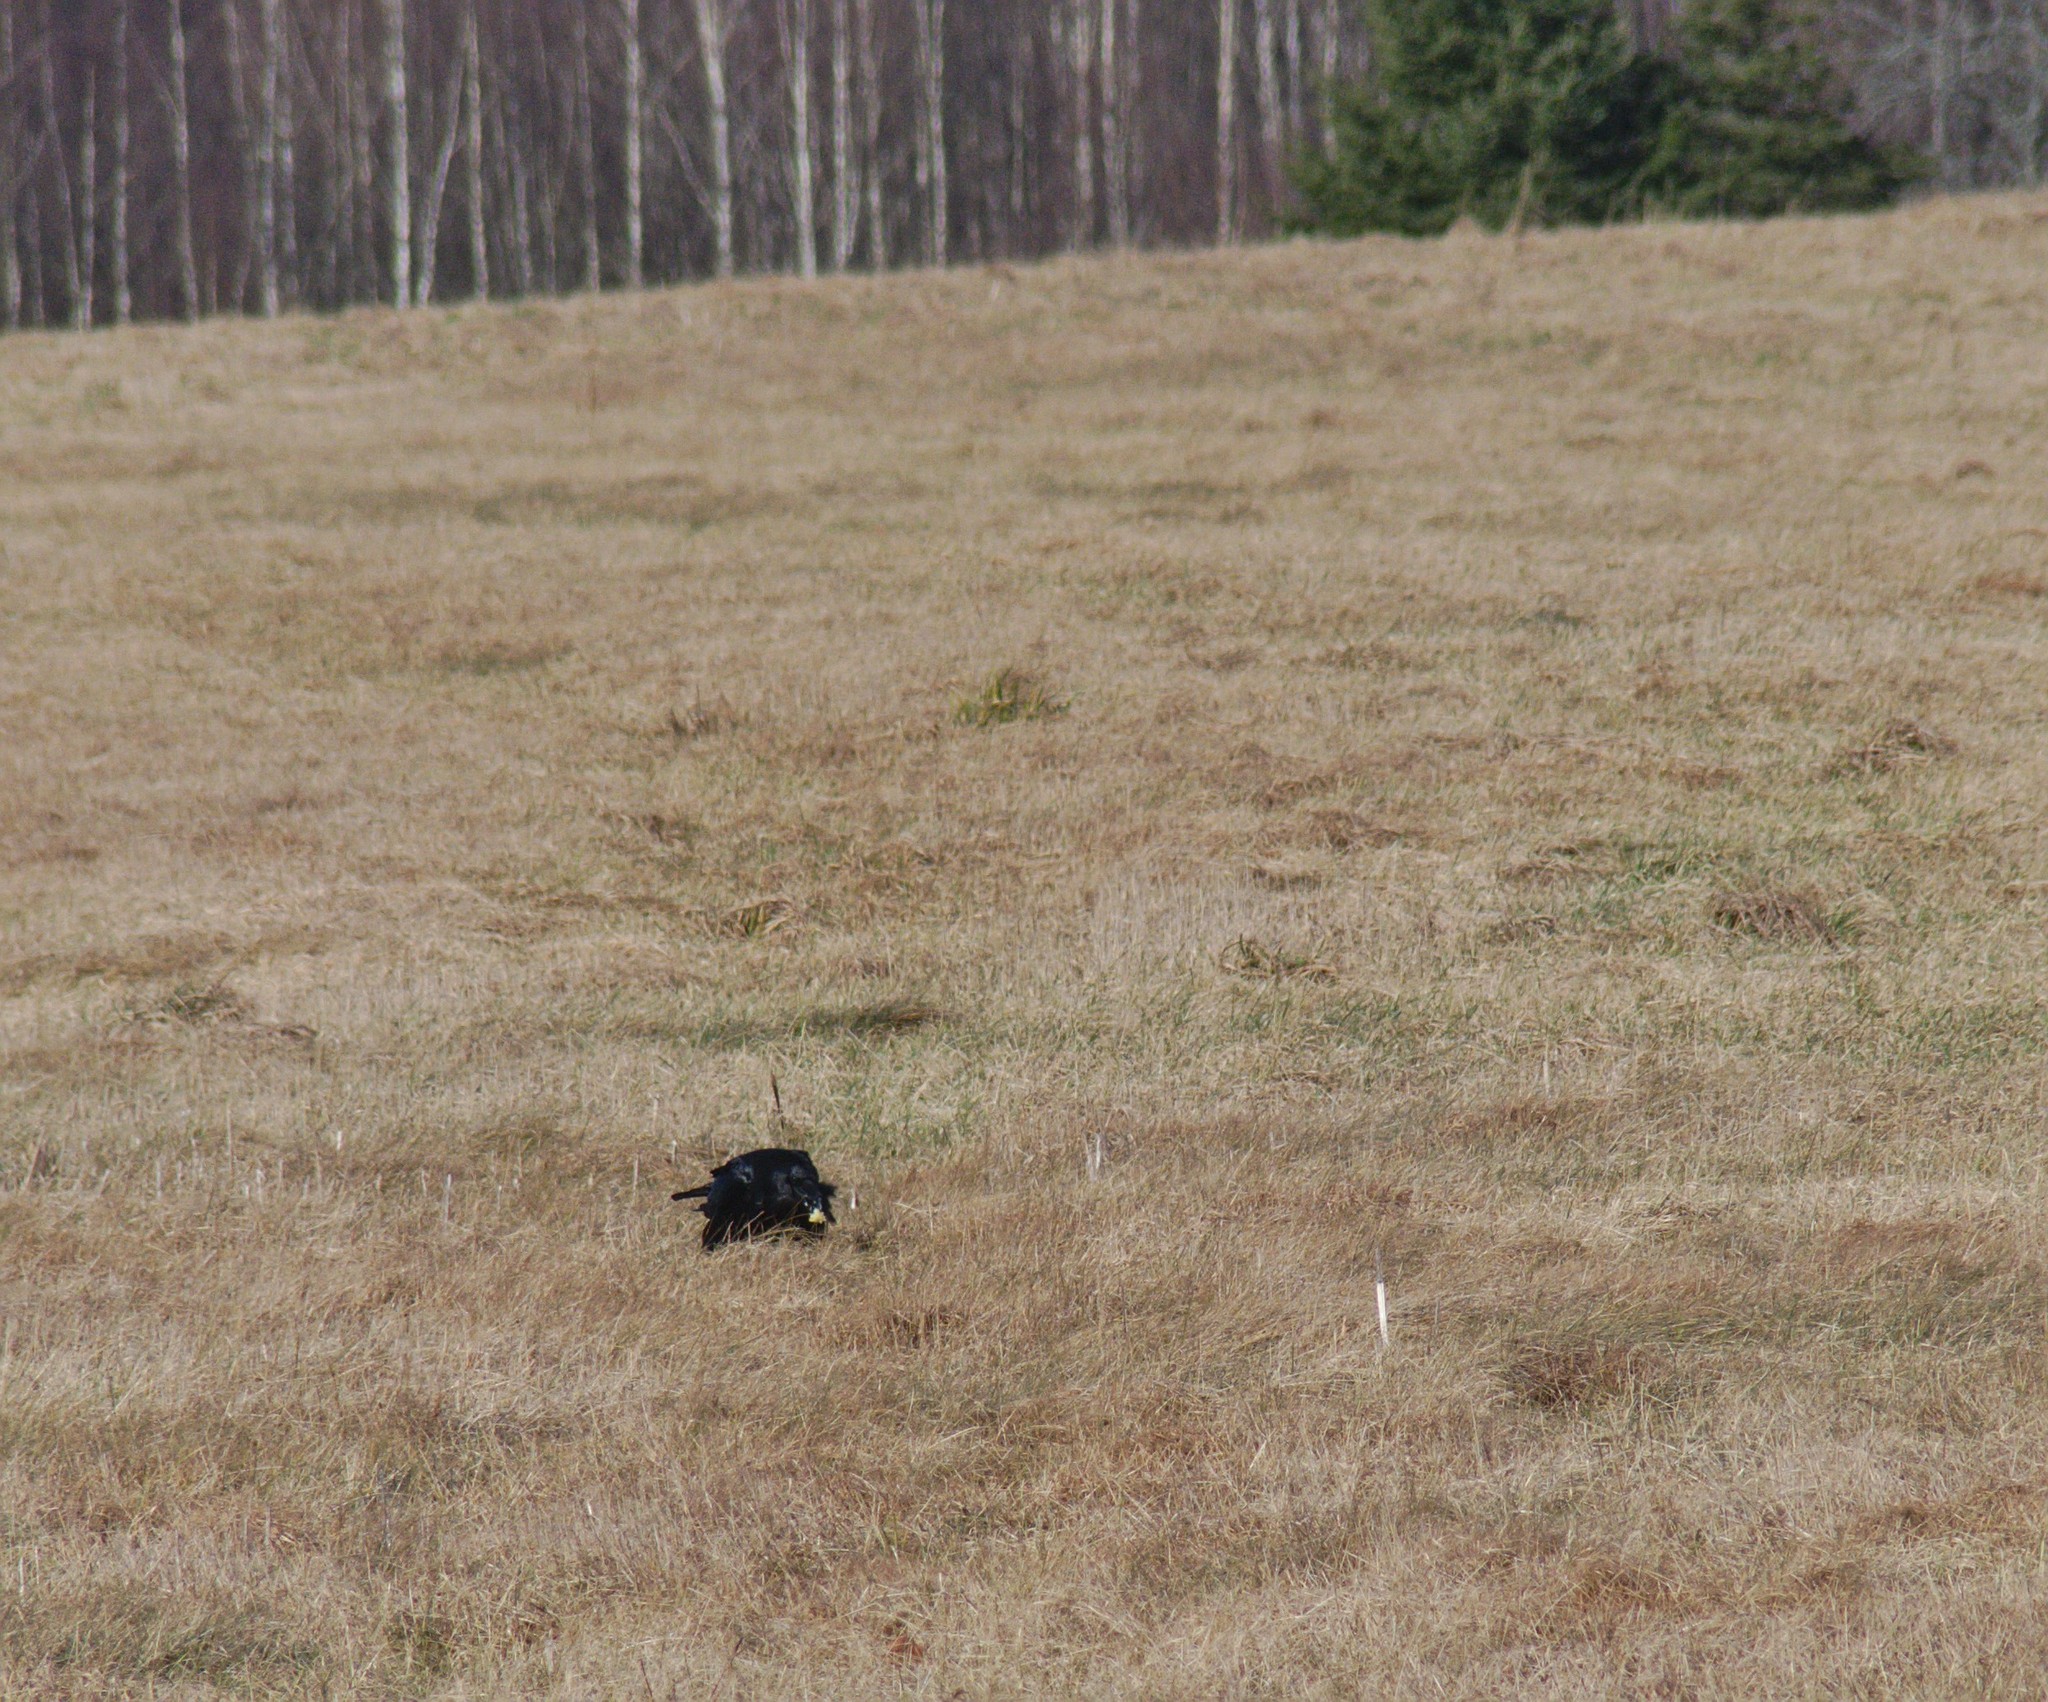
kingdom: Animalia
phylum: Chordata
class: Aves
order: Passeriformes
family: Corvidae
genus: Corvus
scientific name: Corvus corax
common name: Common raven
